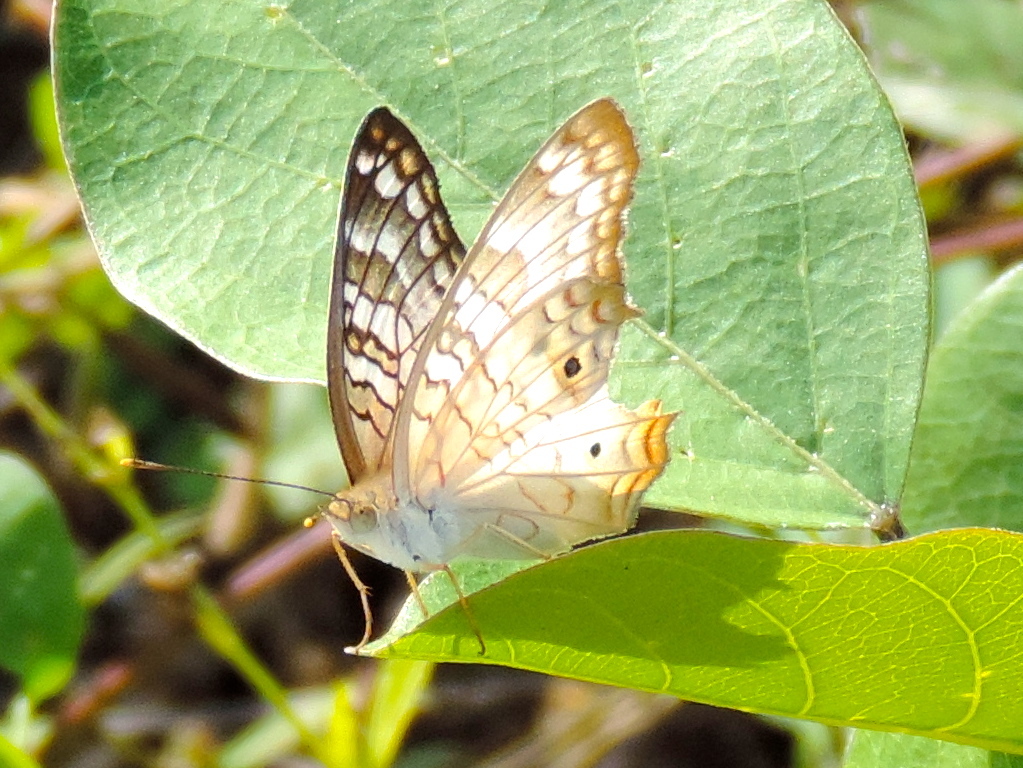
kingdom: Animalia
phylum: Arthropoda
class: Insecta
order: Lepidoptera
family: Nymphalidae
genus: Anartia
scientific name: Anartia jatrophae
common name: White peacock
